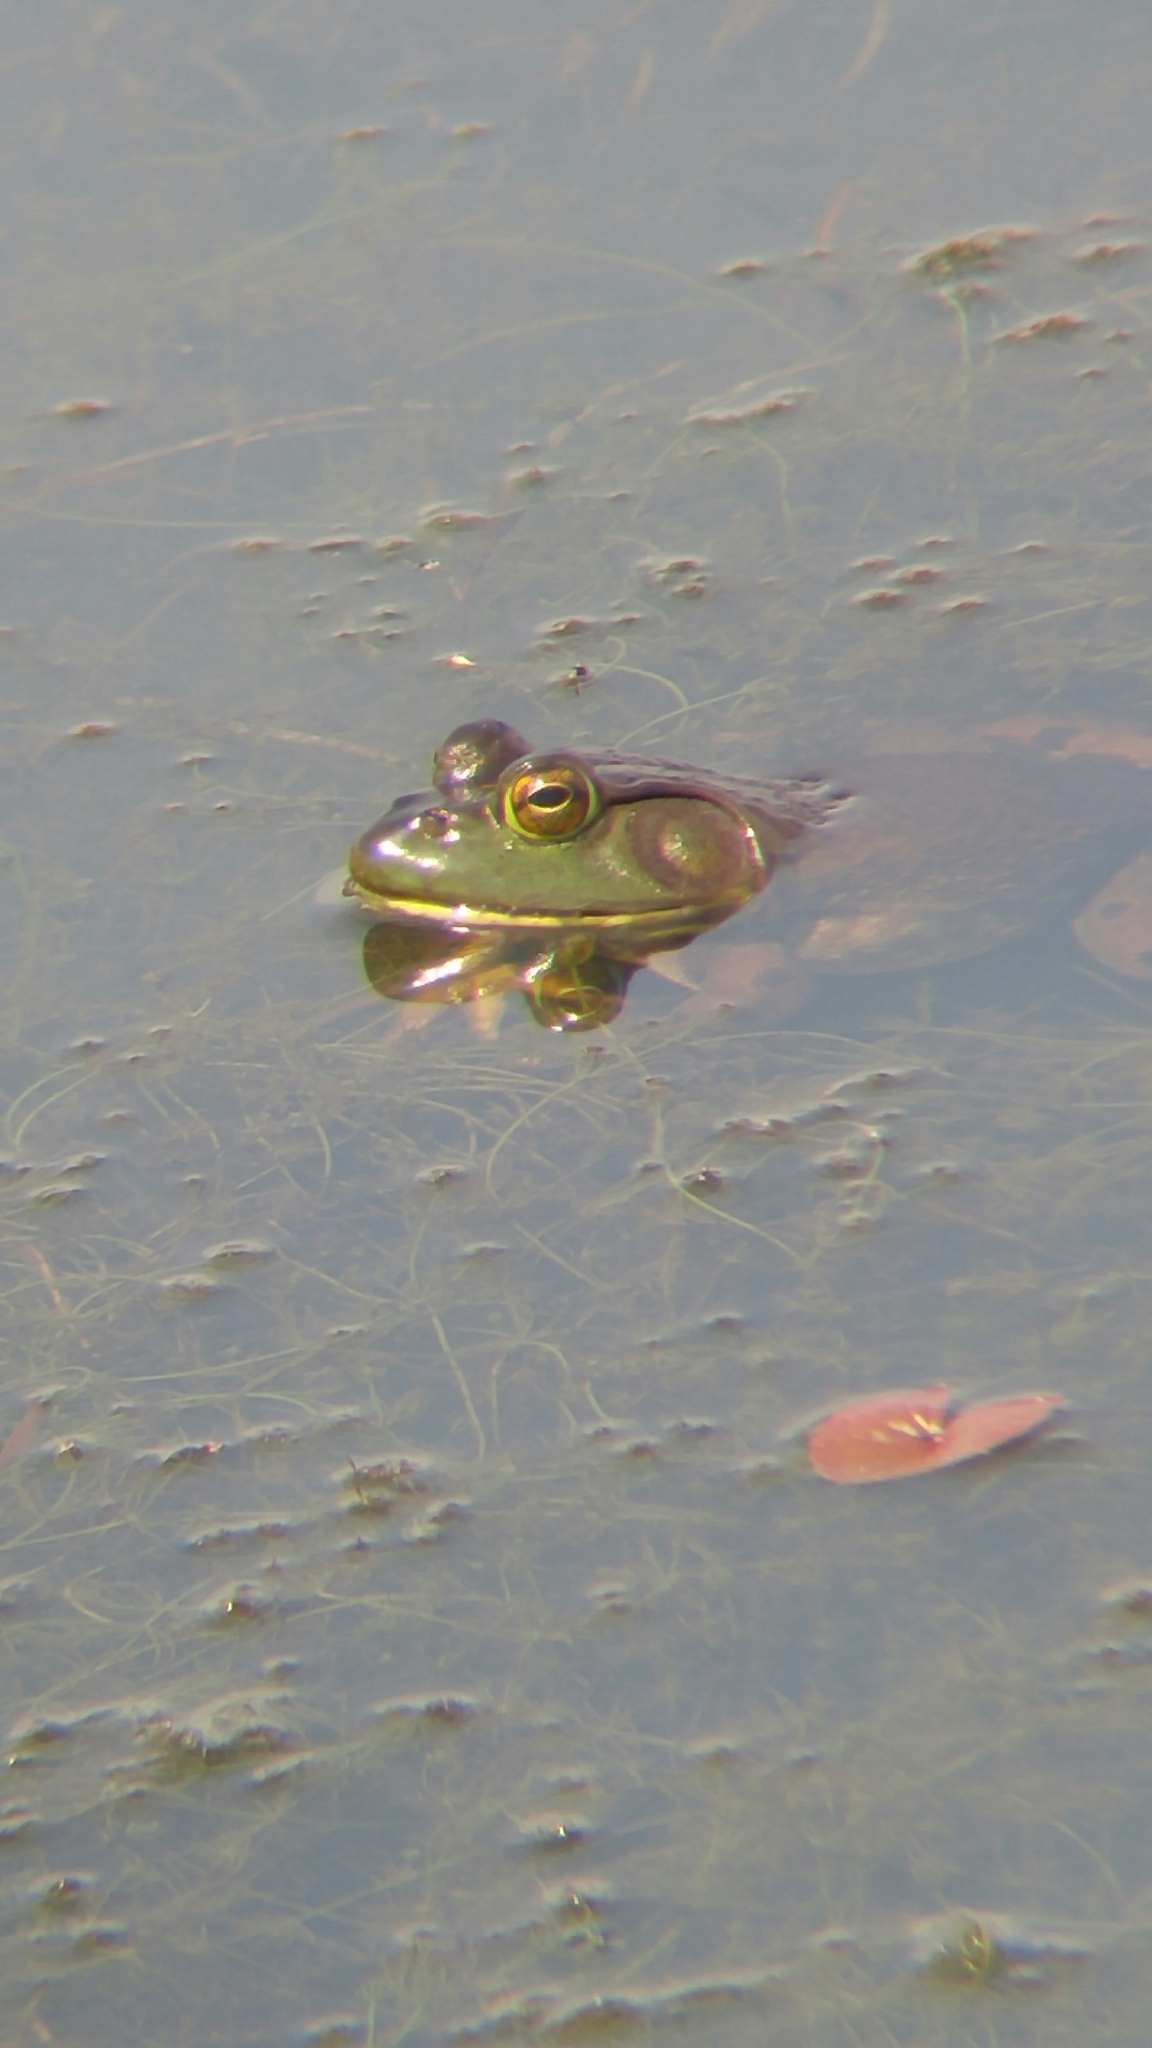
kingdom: Animalia
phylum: Chordata
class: Amphibia
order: Anura
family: Ranidae
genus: Lithobates
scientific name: Lithobates catesbeianus
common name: American bullfrog
